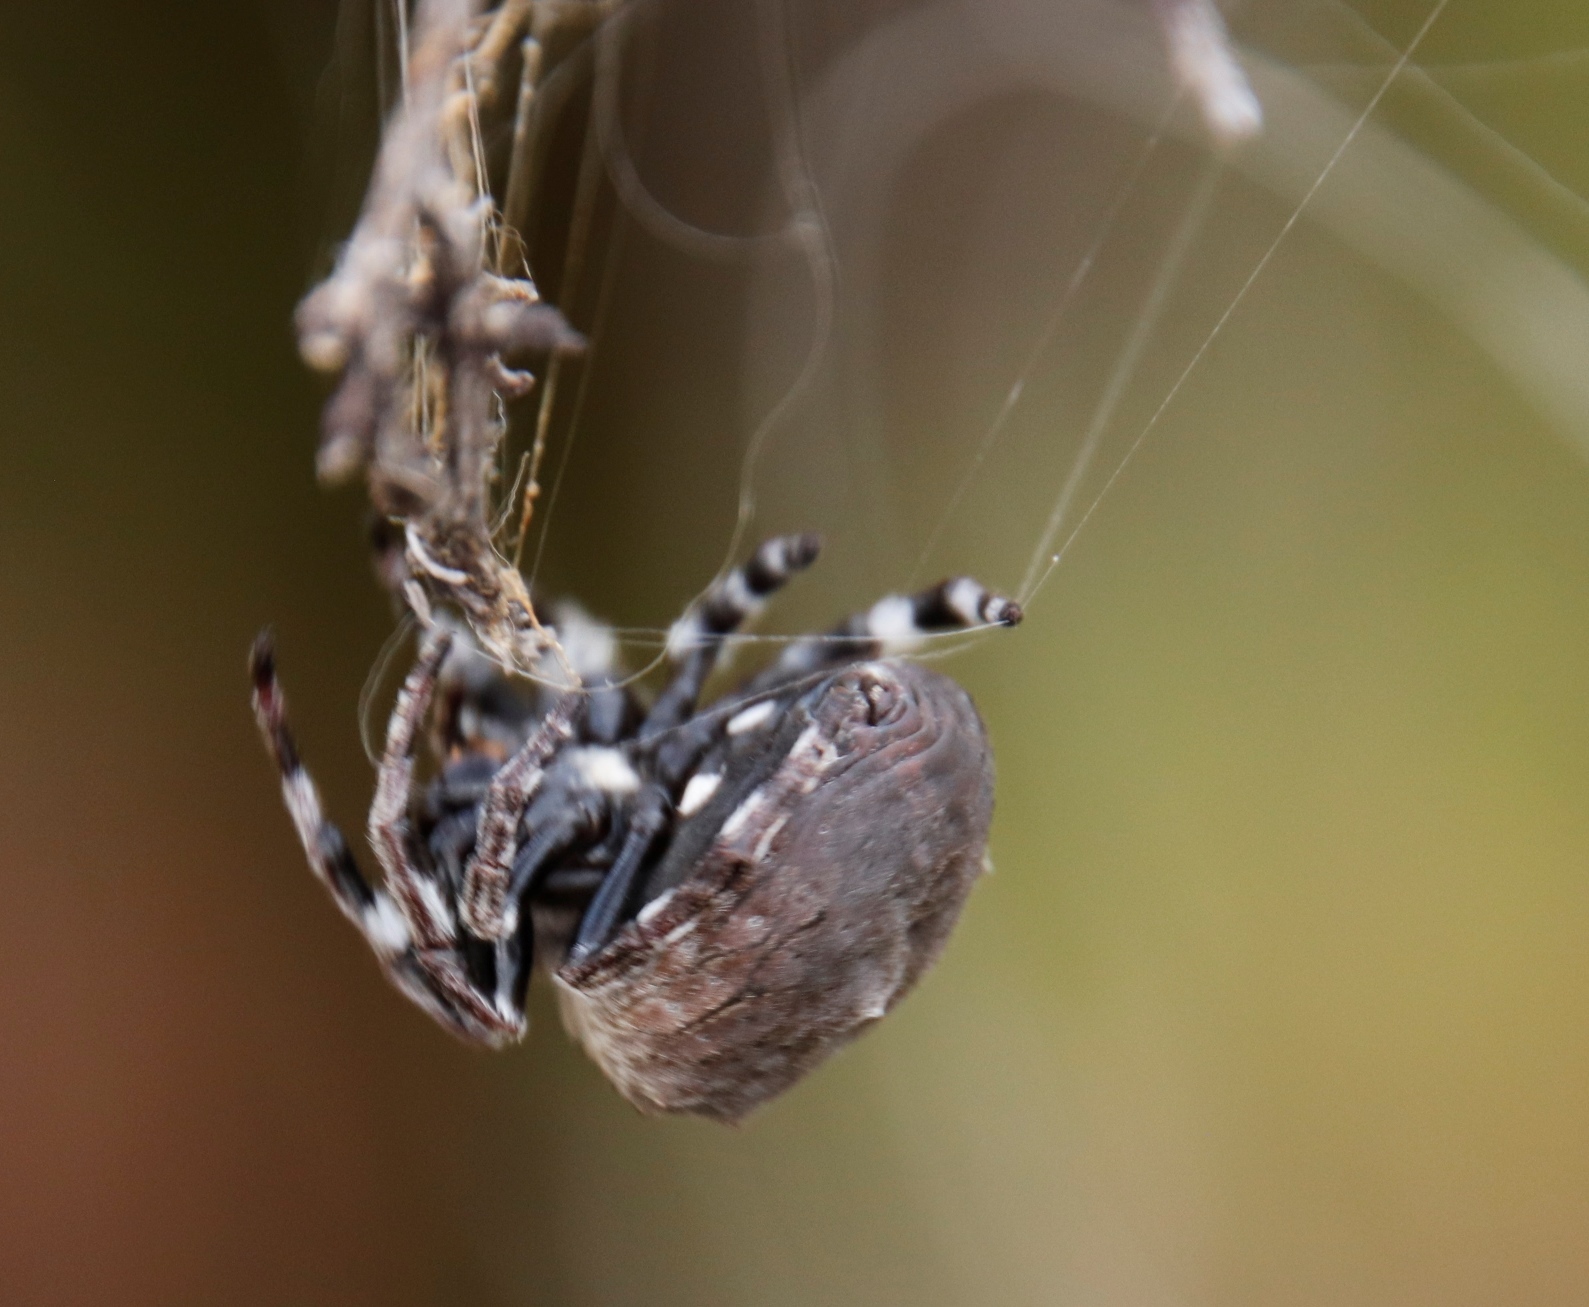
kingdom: Animalia
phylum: Arthropoda
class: Arachnida
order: Araneae
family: Araneidae
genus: Caerostris
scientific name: Caerostris corticosa
